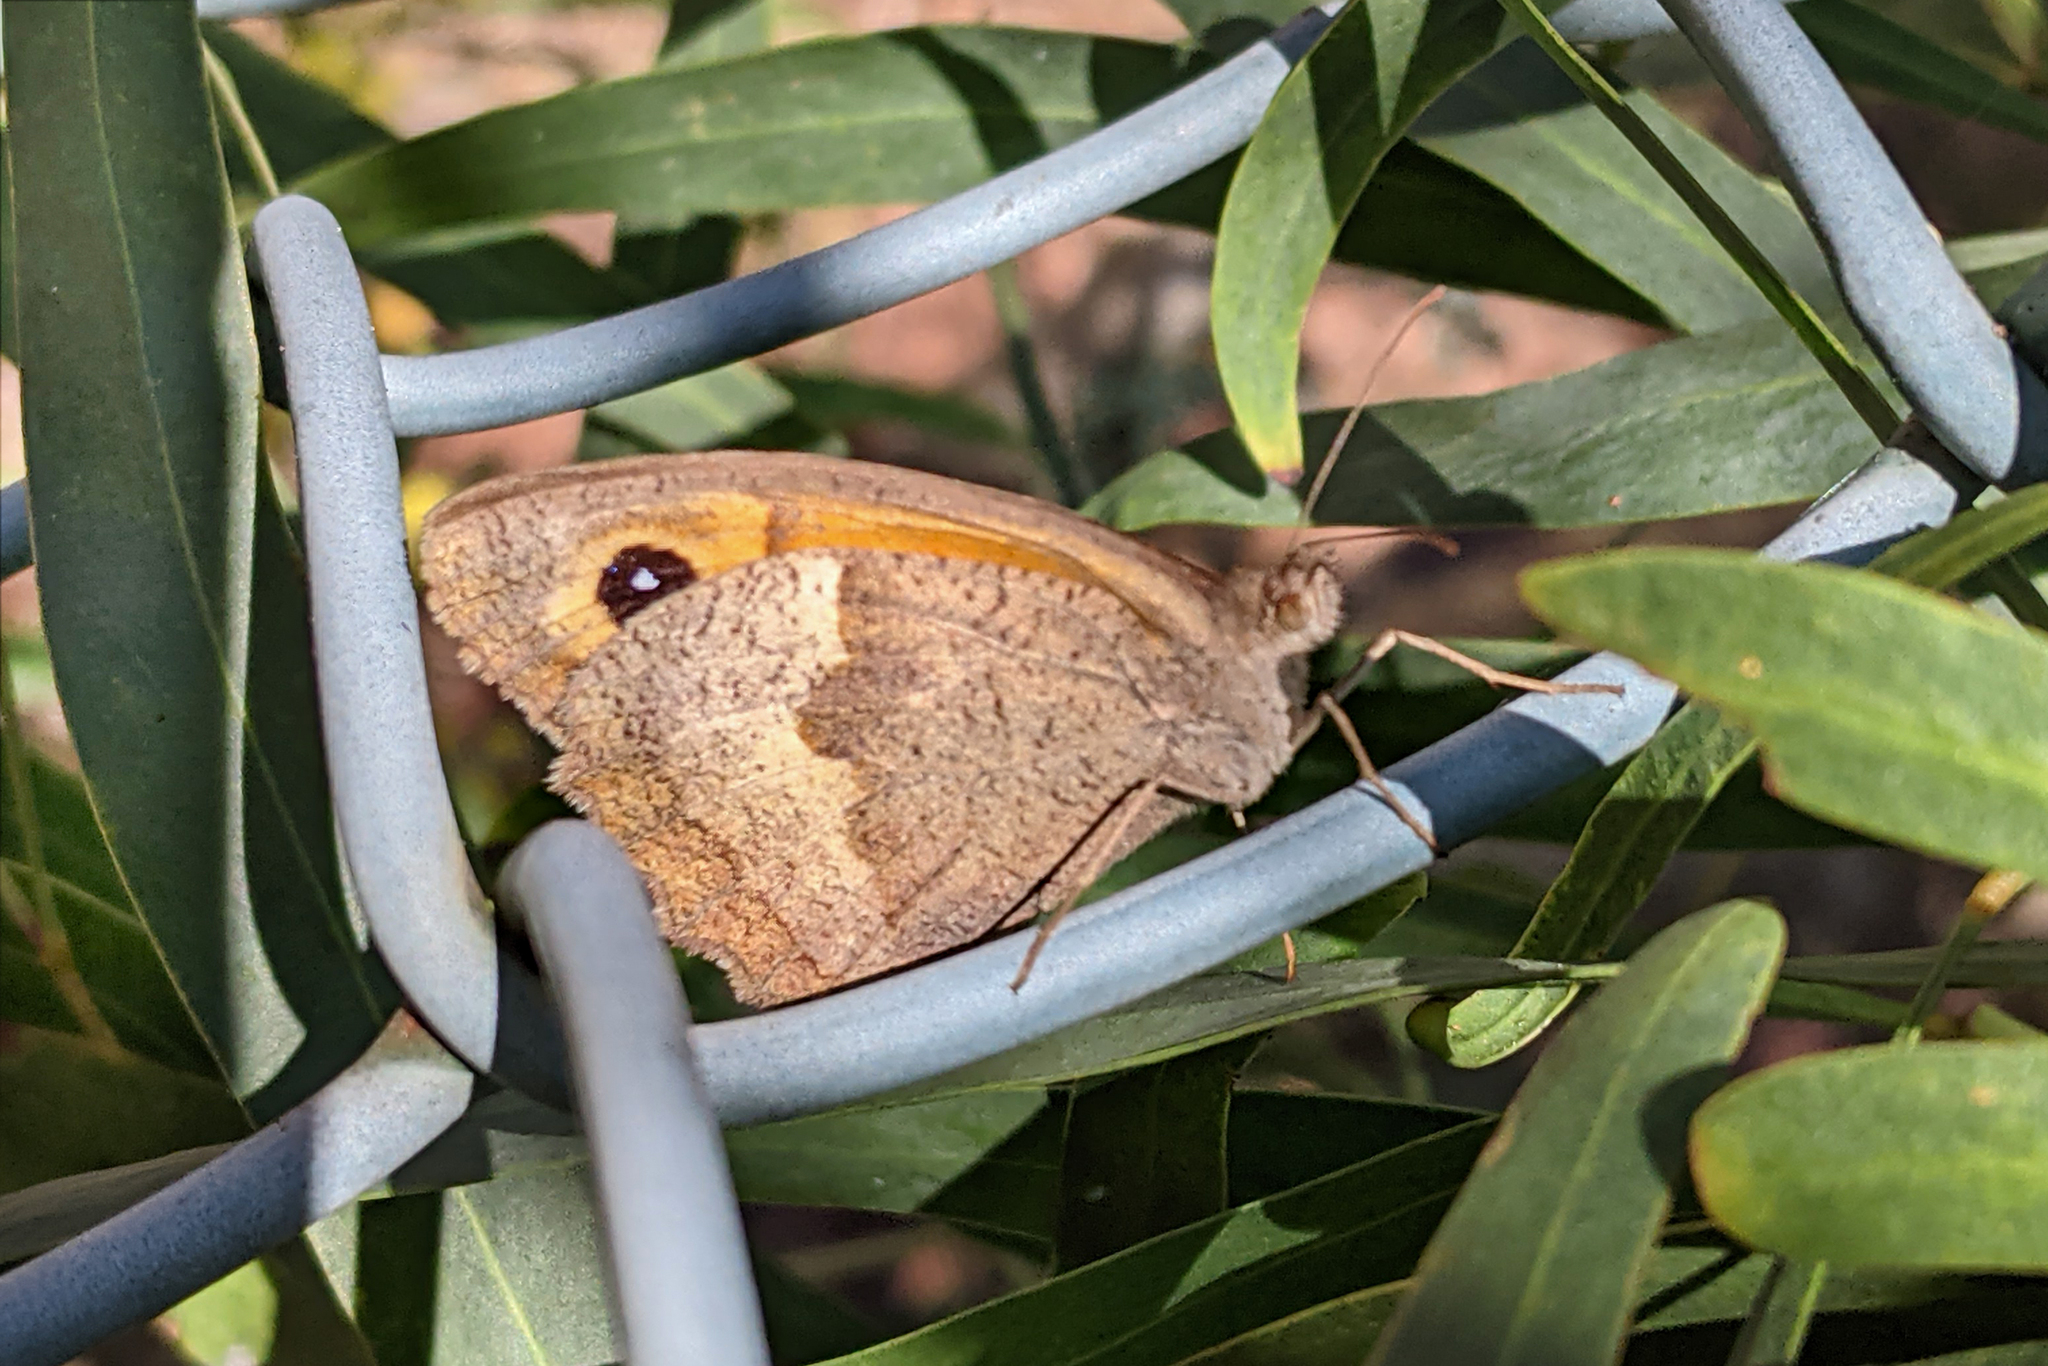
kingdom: Animalia
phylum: Arthropoda
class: Insecta
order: Lepidoptera
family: Nymphalidae
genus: Maniola
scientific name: Maniola jurtina
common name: Meadow brown
